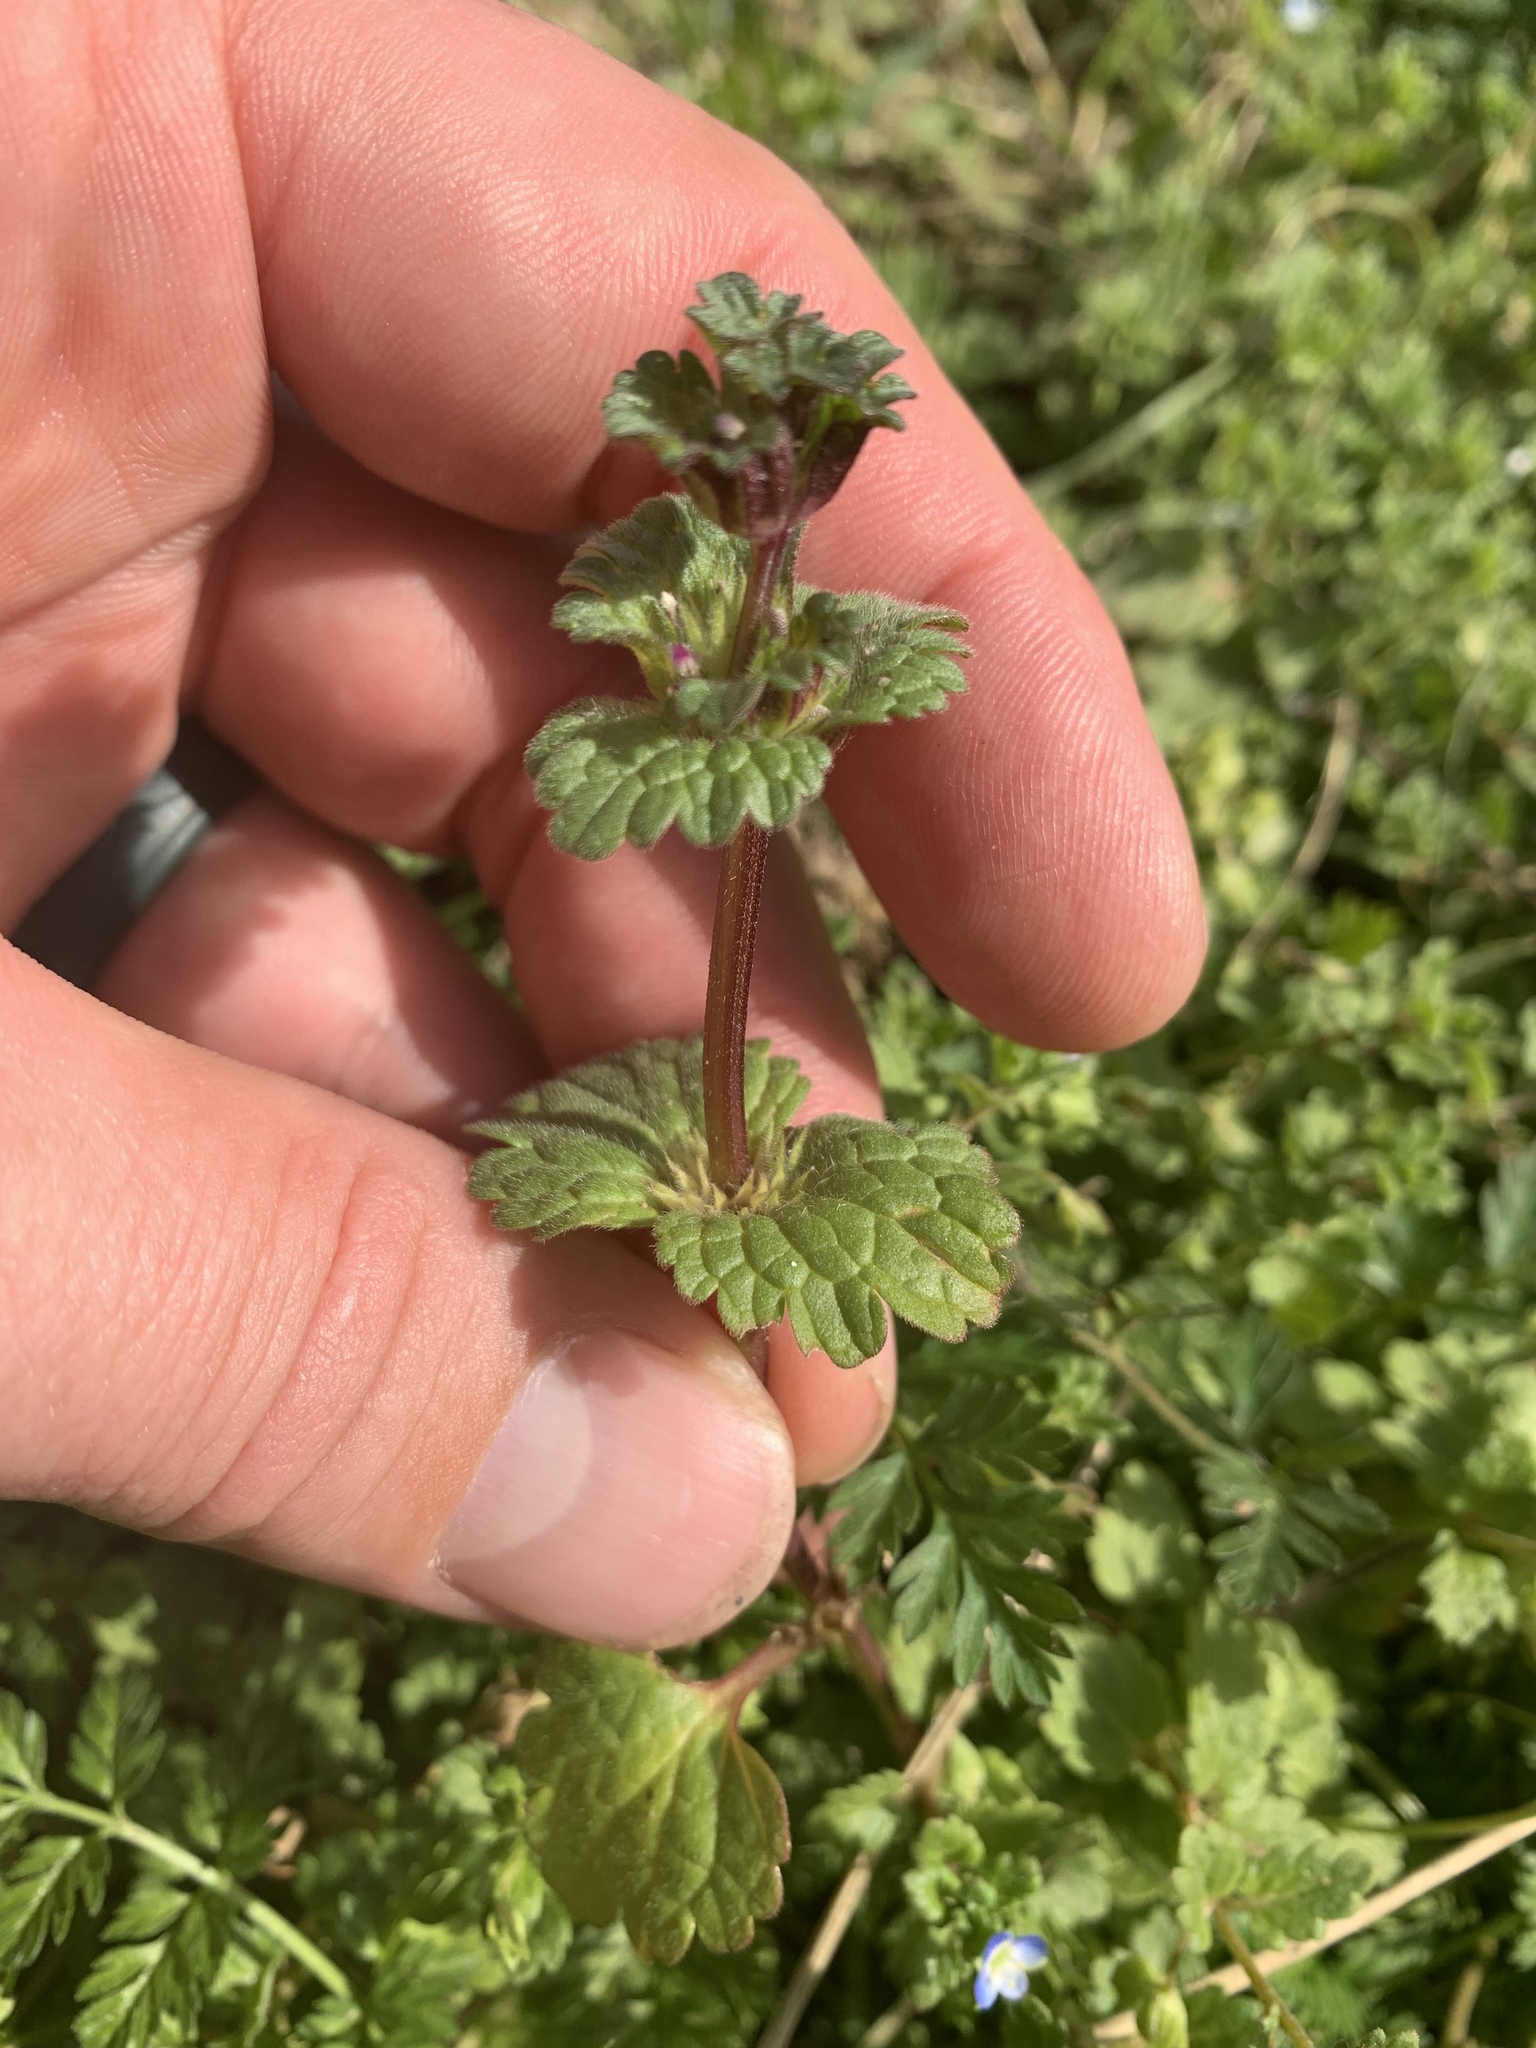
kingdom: Plantae
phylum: Tracheophyta
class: Magnoliopsida
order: Lamiales
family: Lamiaceae
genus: Lamium
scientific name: Lamium amplexicaule
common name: Henbit dead-nettle
